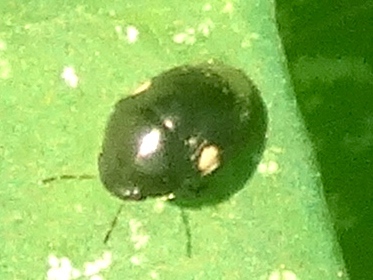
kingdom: Animalia
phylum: Arthropoda
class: Insecta
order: Hemiptera
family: Thyreocoridae
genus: Galgupha
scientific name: Galgupha
